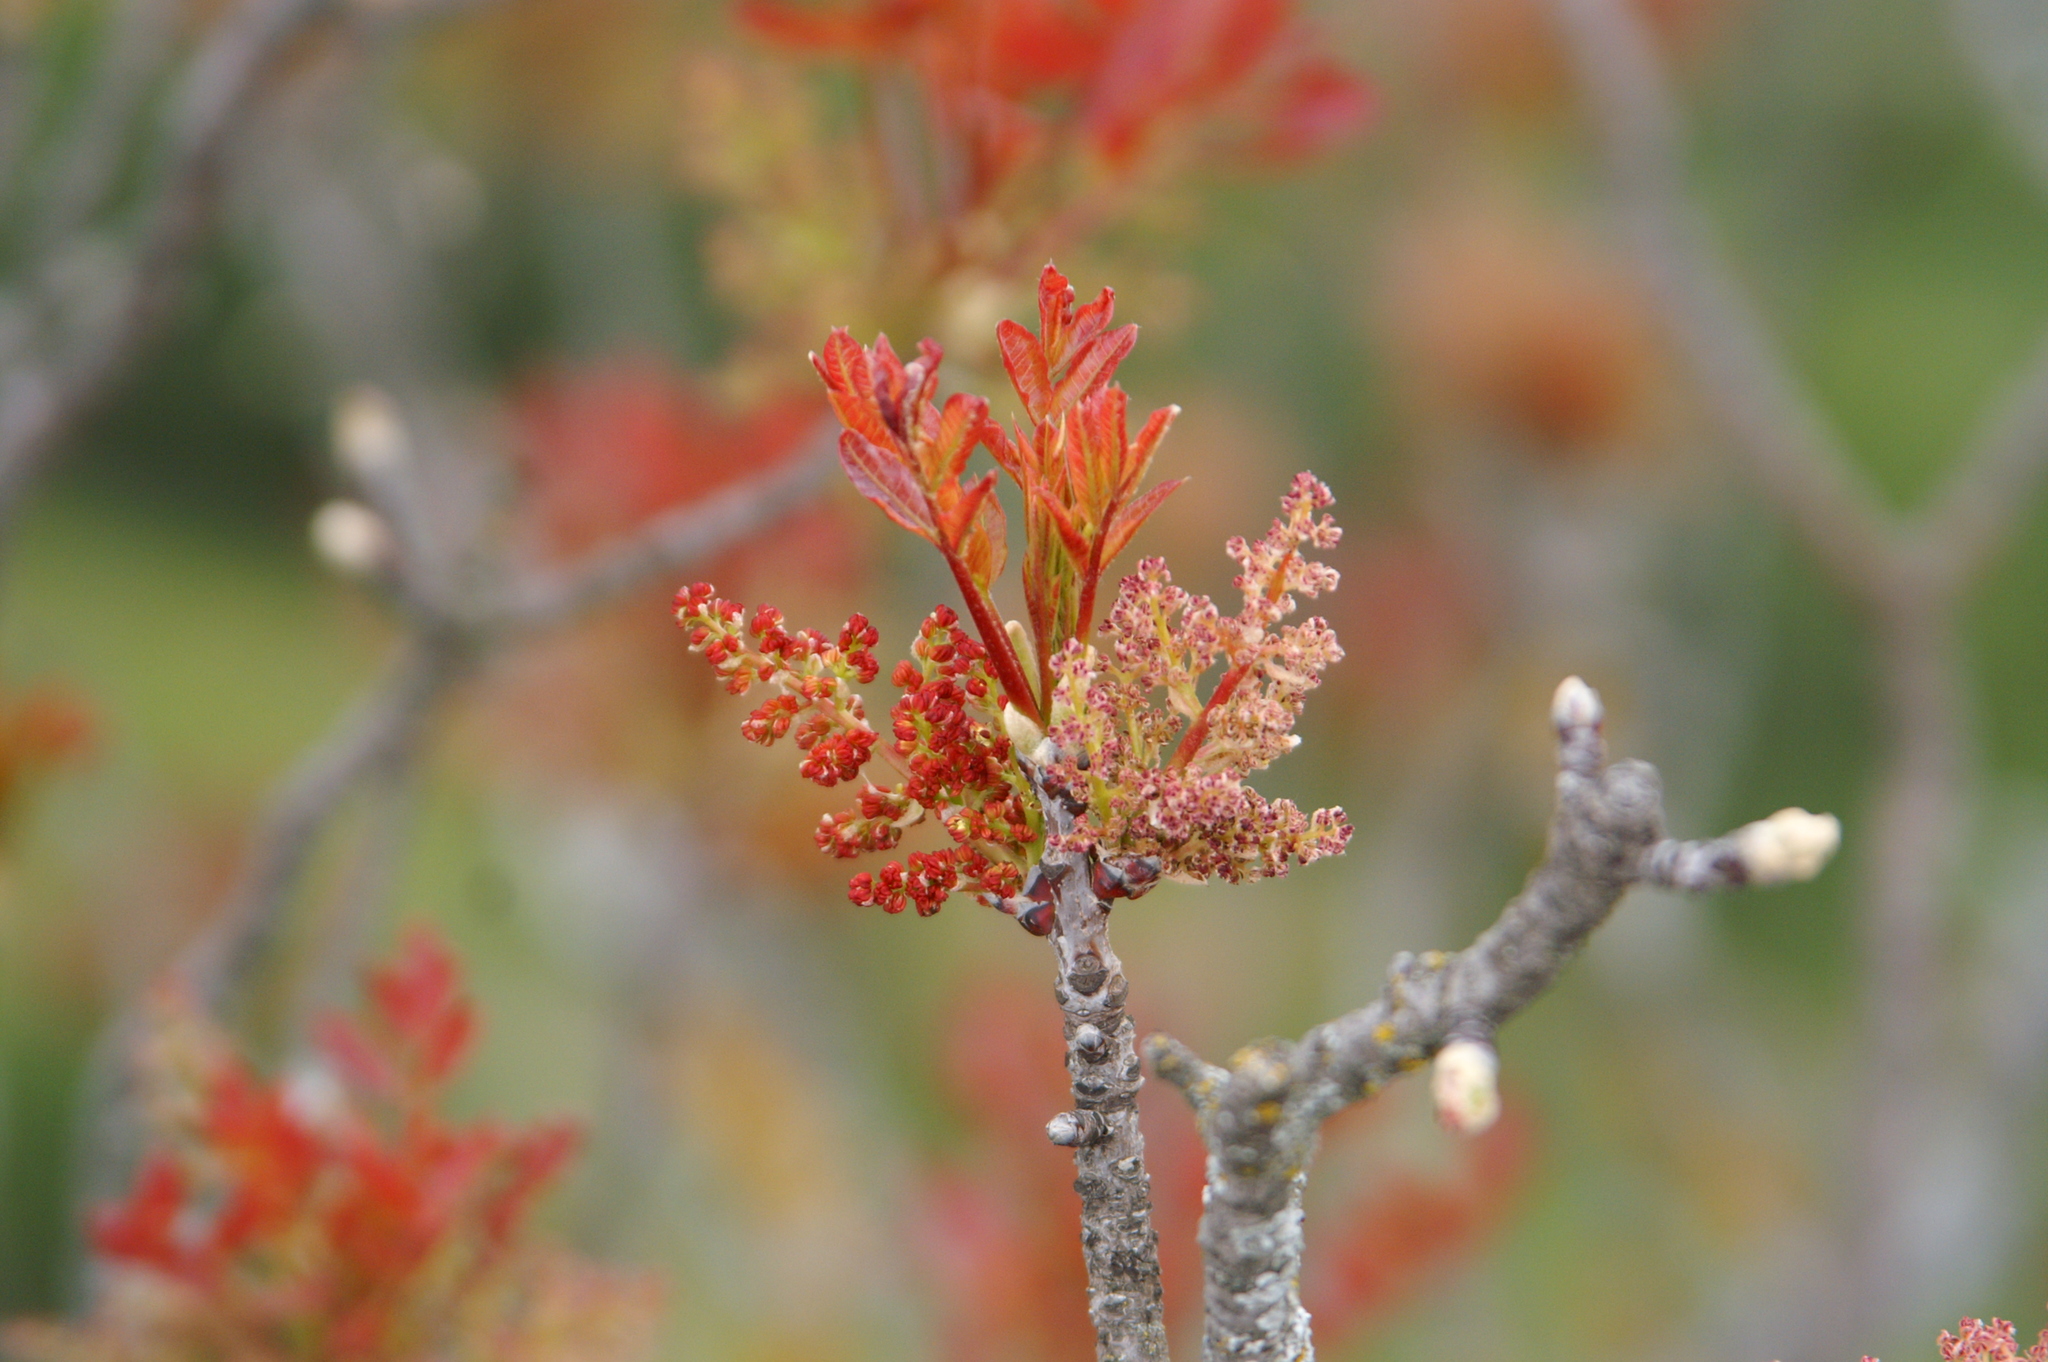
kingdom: Plantae
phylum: Tracheophyta
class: Magnoliopsida
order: Sapindales
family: Anacardiaceae
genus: Pistacia
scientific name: Pistacia terebinthus
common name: Terebinth
